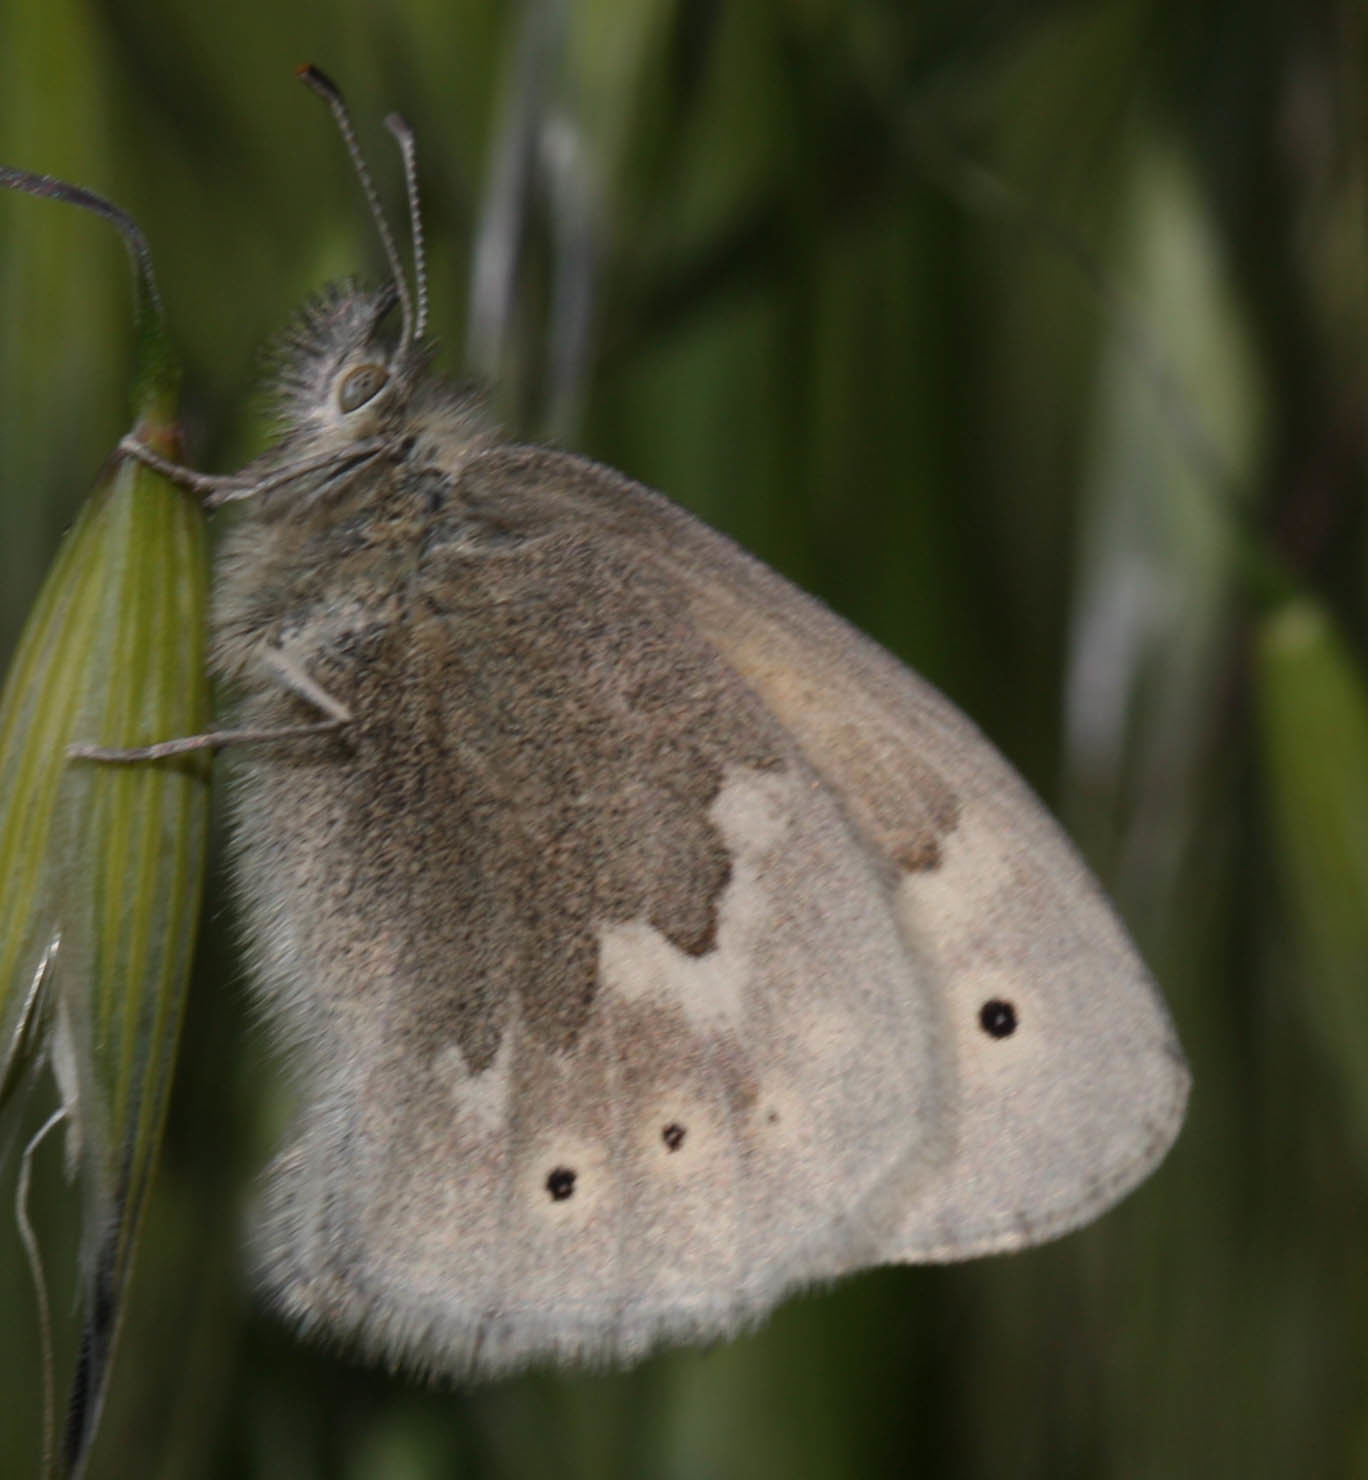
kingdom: Animalia
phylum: Arthropoda
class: Insecta
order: Lepidoptera
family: Nymphalidae
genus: Coenonympha
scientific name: Coenonympha california
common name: Common ringlet
